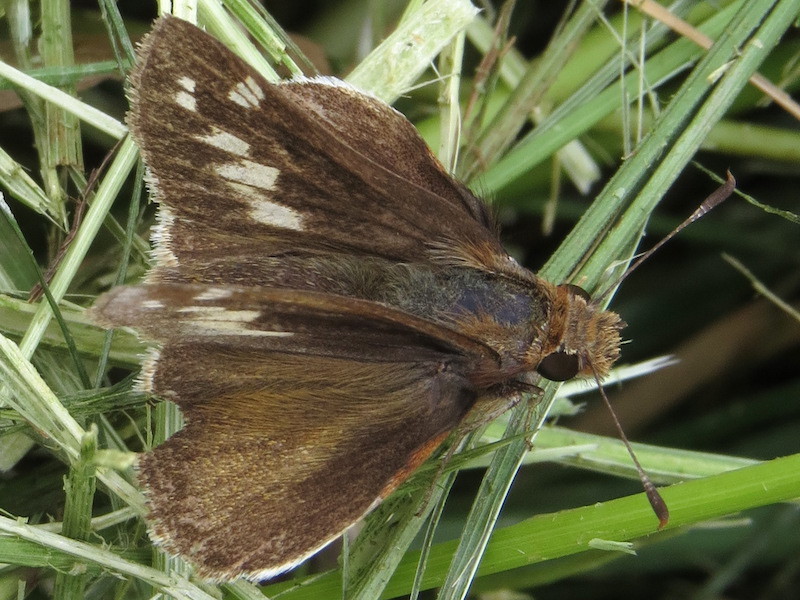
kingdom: Animalia
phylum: Arthropoda
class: Insecta
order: Lepidoptera
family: Hesperiidae
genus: Lon
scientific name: Lon zabulon
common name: Zabulon skipper
